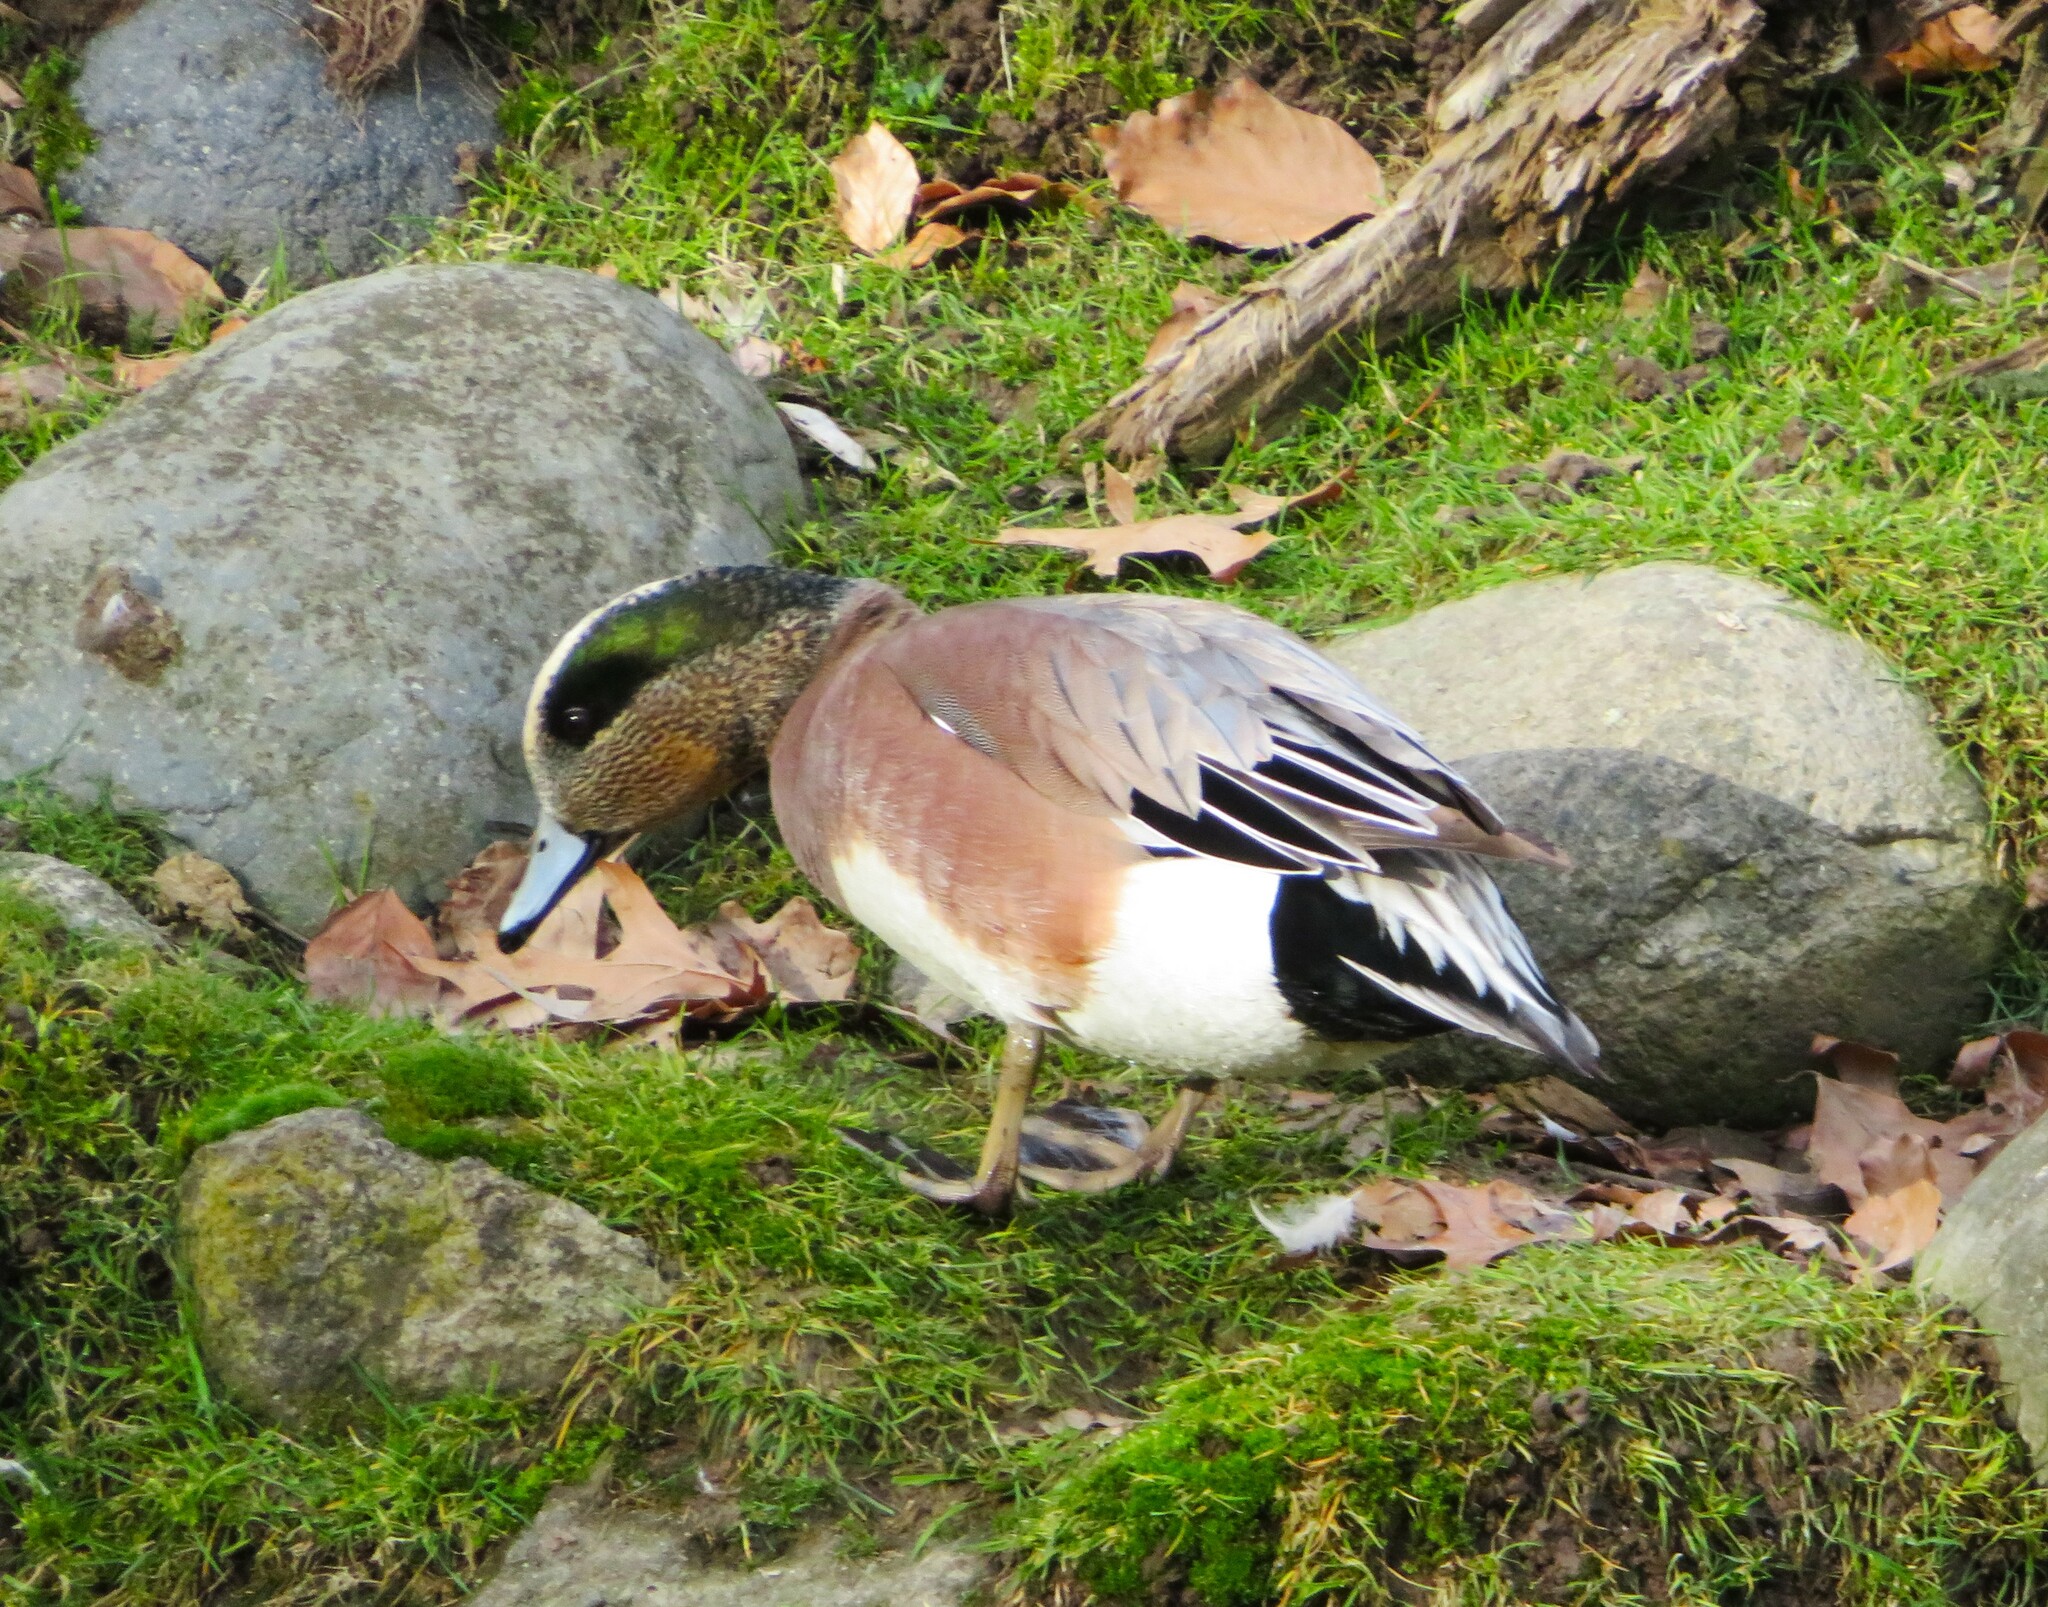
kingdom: Animalia
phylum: Chordata
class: Aves
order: Anseriformes
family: Anatidae
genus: Mareca
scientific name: Mareca americana
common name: American wigeon
